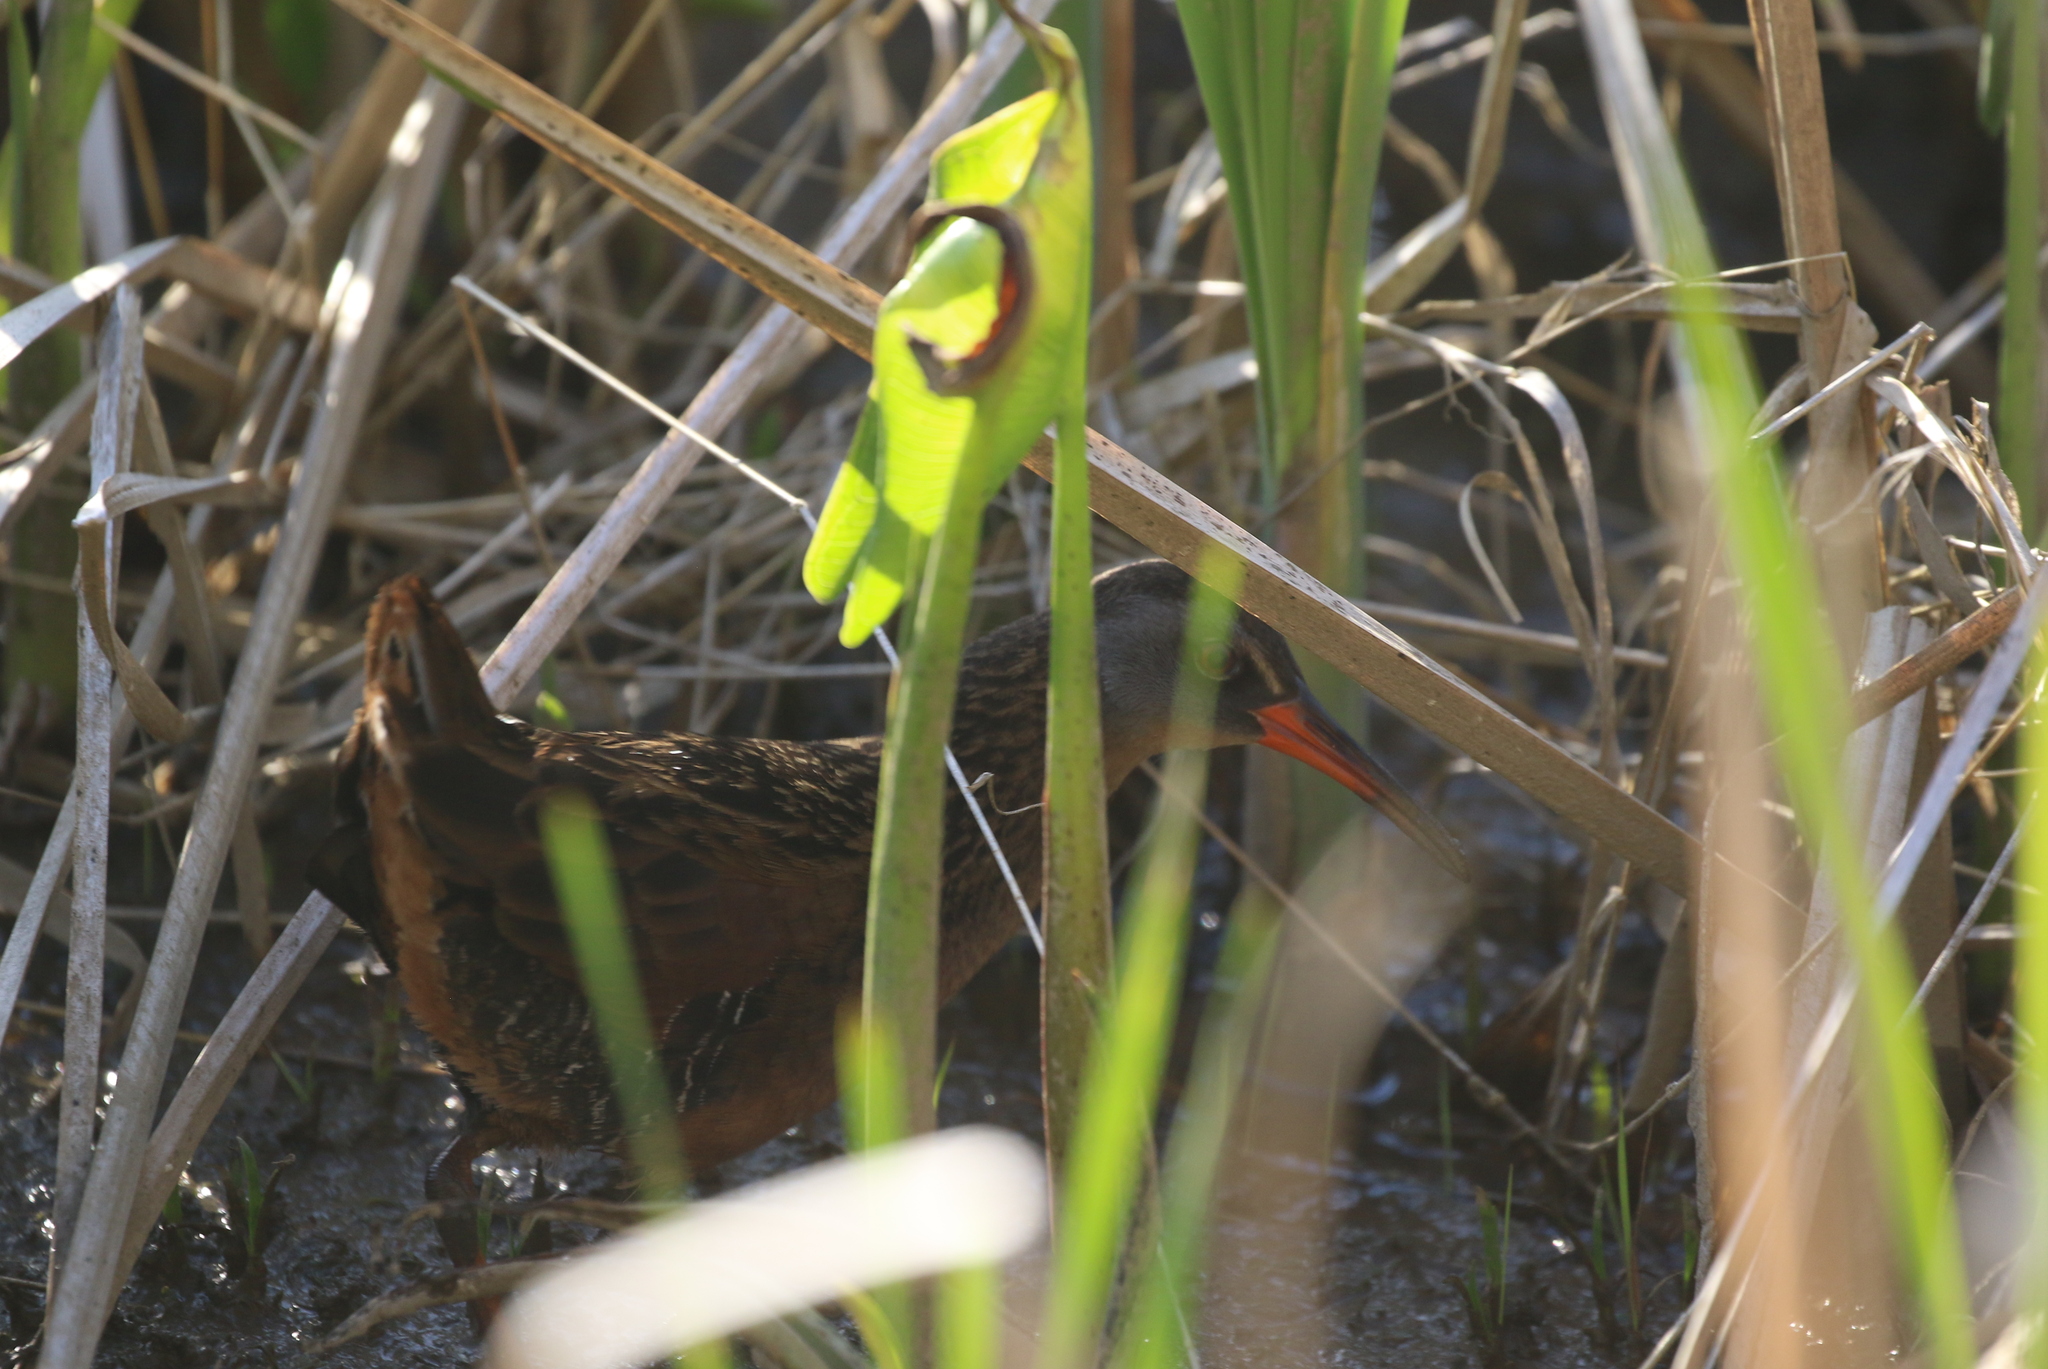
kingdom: Animalia
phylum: Chordata
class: Aves
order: Gruiformes
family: Rallidae
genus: Rallus
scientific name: Rallus limicola
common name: Virginia rail
